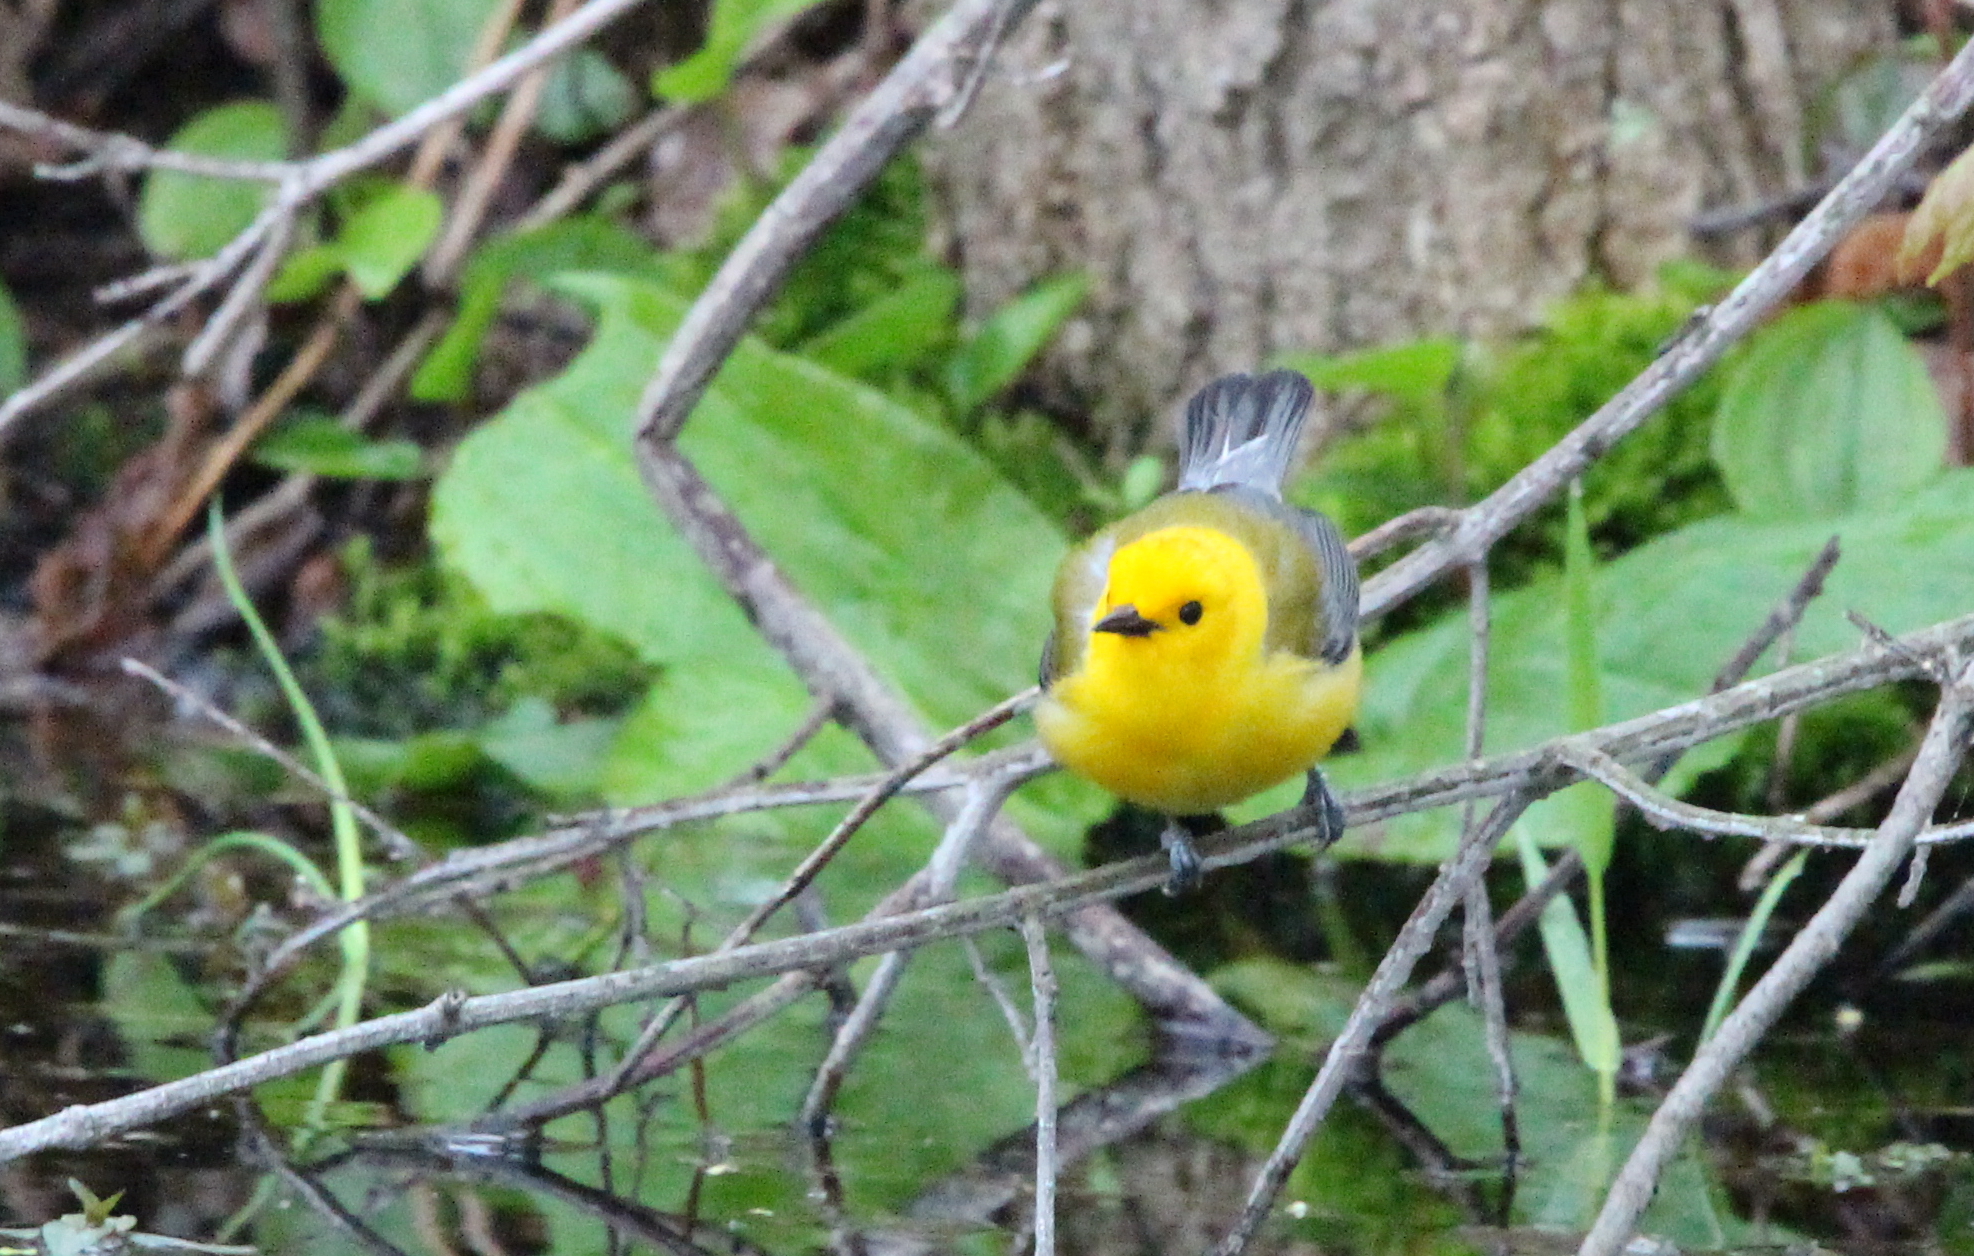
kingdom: Animalia
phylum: Chordata
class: Aves
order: Passeriformes
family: Parulidae
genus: Protonotaria
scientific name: Protonotaria citrea
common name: Prothonotary warbler
